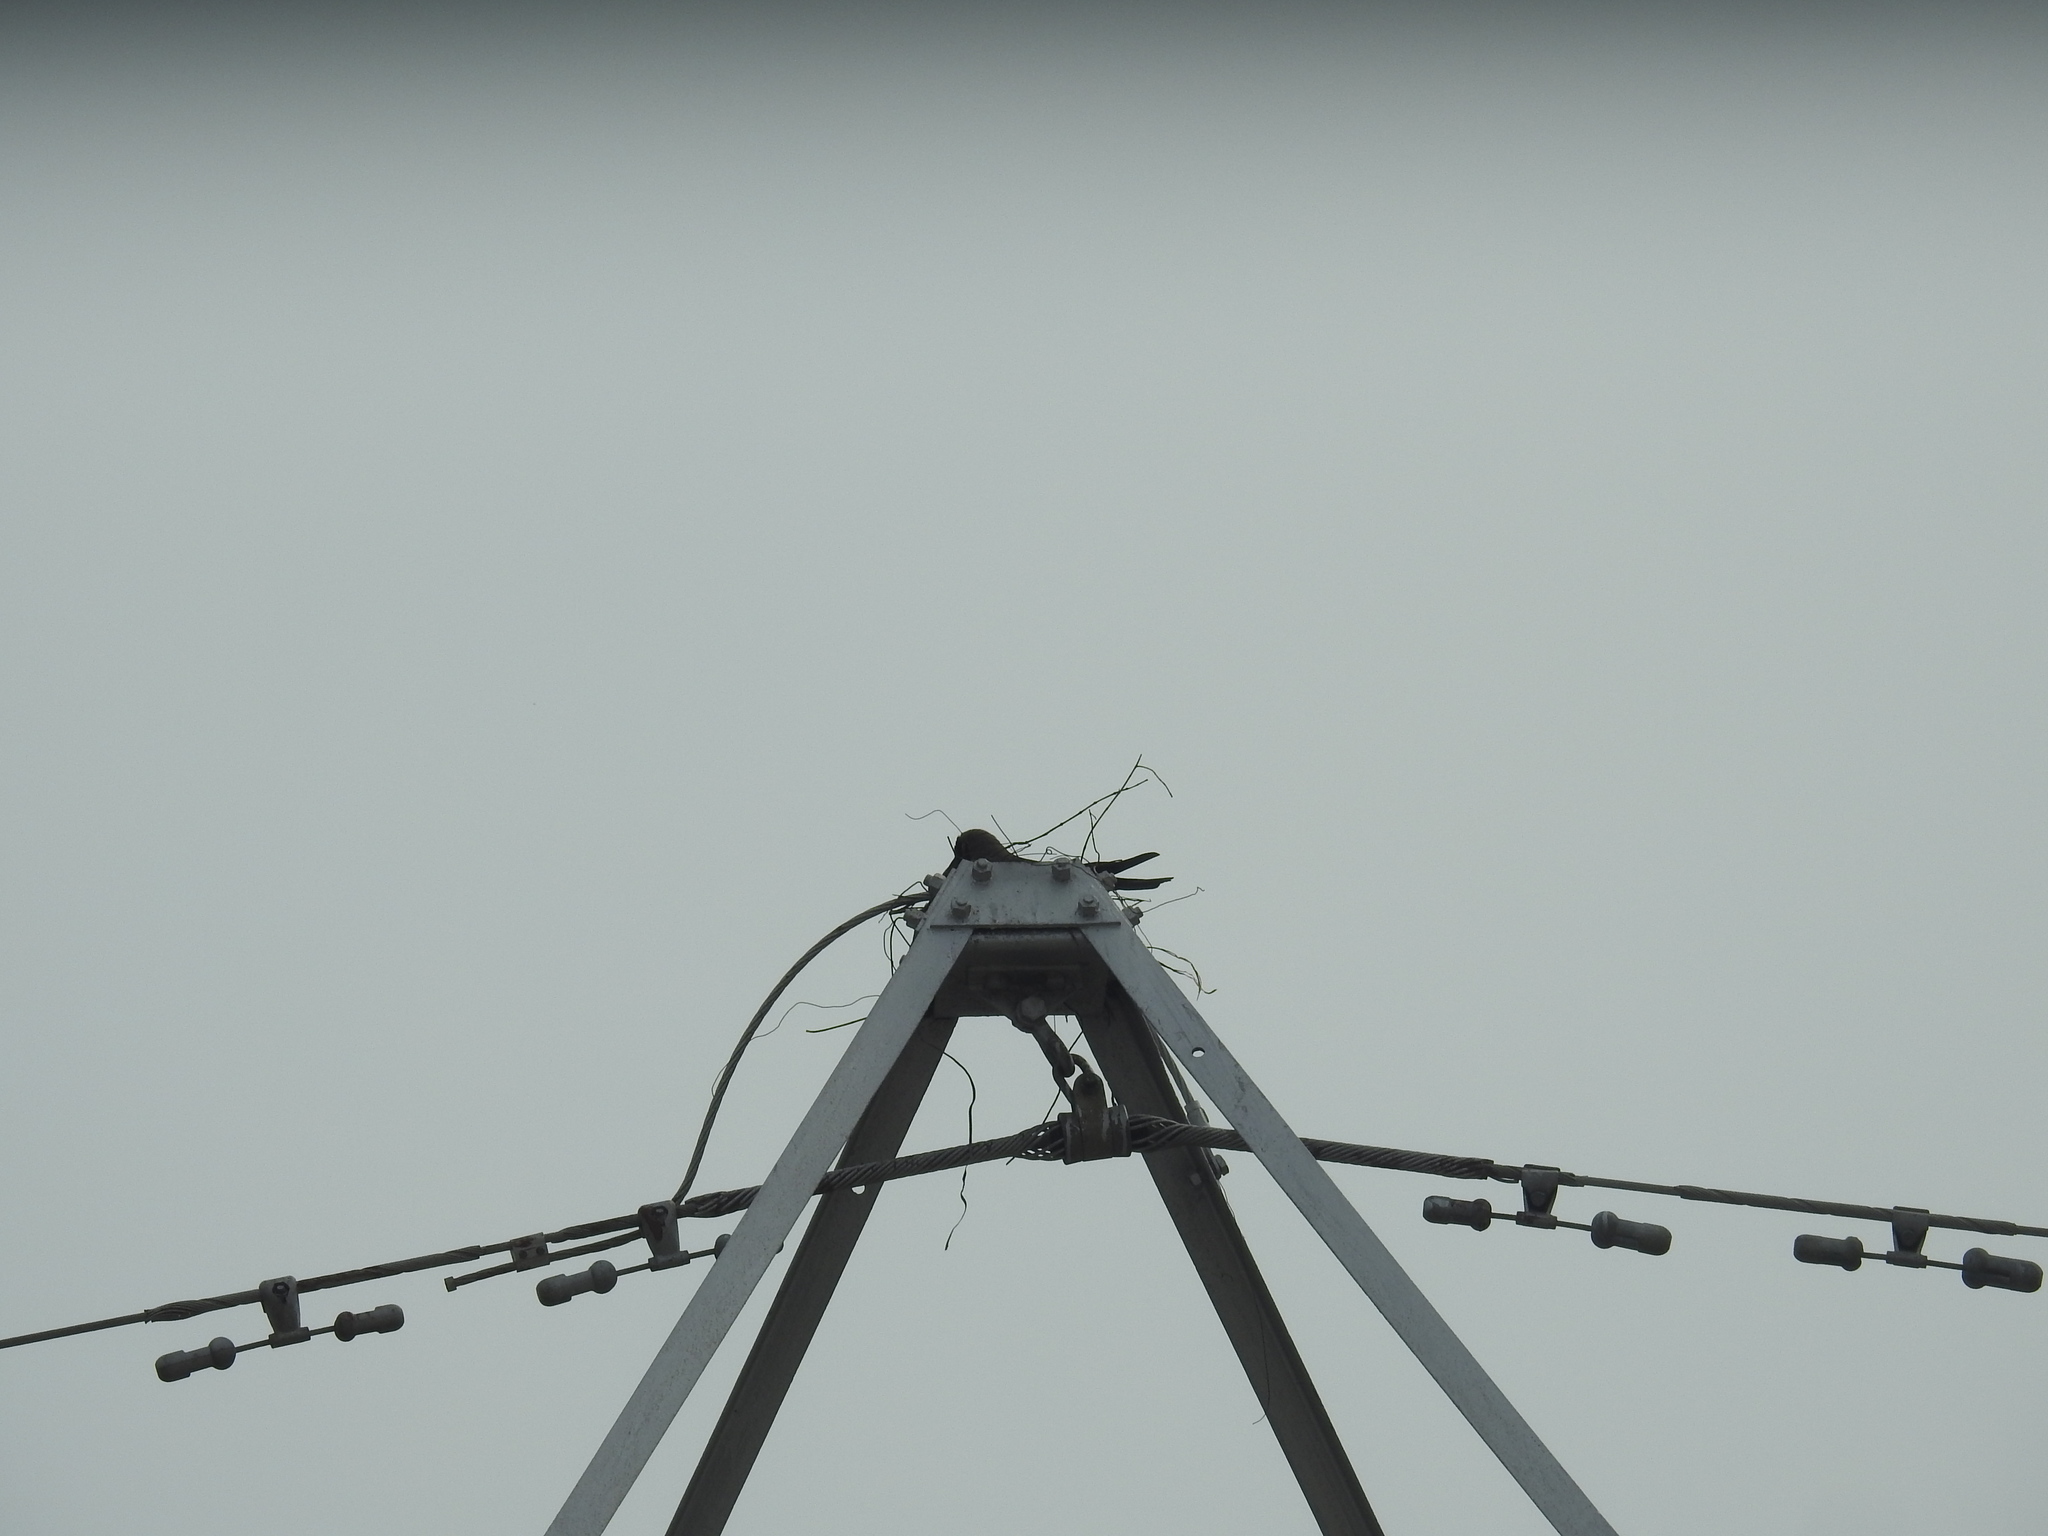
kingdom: Animalia
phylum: Chordata
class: Aves
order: Passeriformes
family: Corvidae
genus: Corvus
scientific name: Corvus splendens
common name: House crow
